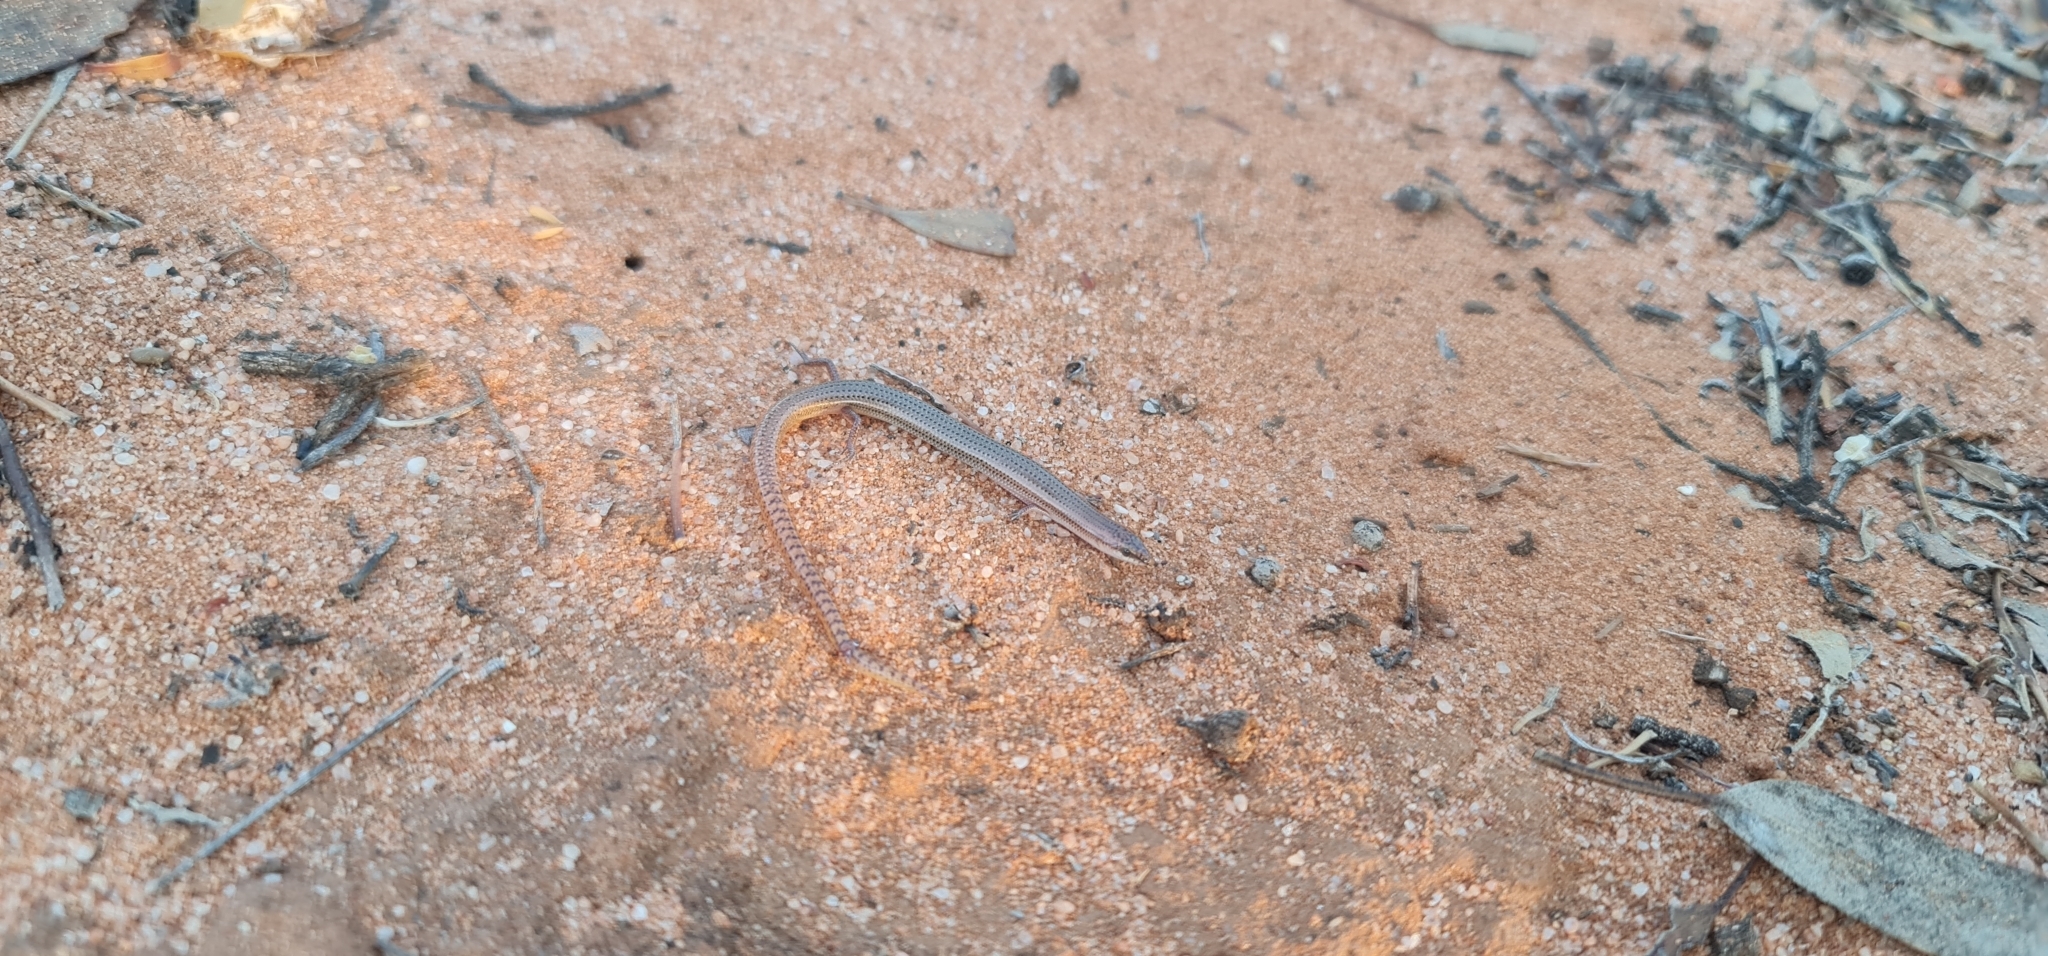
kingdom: Animalia
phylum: Chordata
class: Squamata
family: Scincidae
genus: Lerista
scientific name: Lerista aericeps
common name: Desert plain slider
